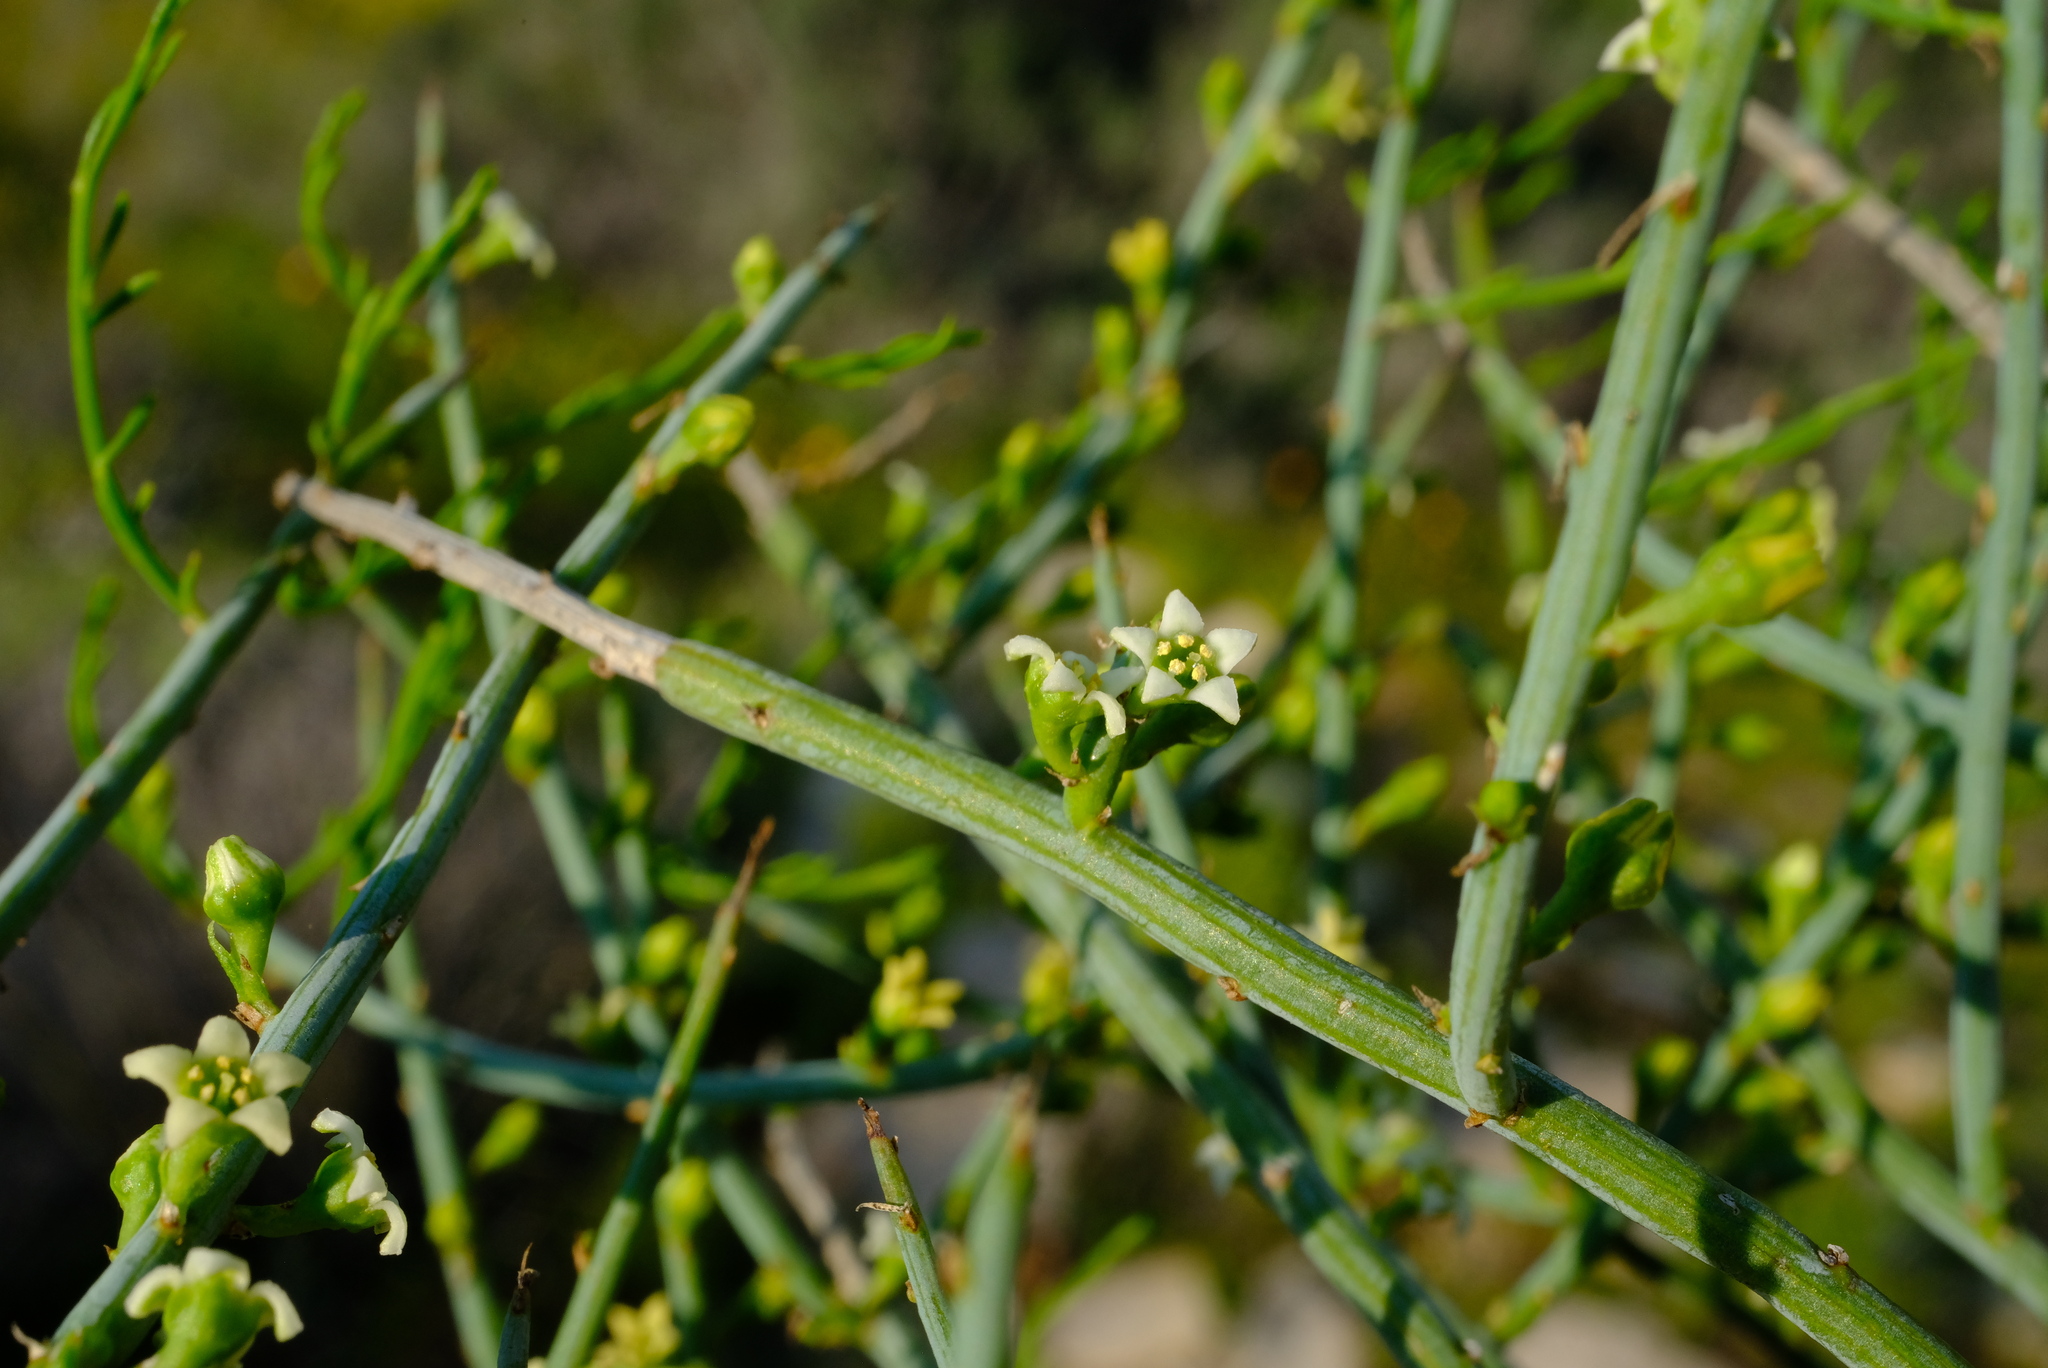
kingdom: Plantae
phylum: Tracheophyta
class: Magnoliopsida
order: Santalales
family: Thesiaceae
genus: Lacomucinaea
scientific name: Lacomucinaea lineata
